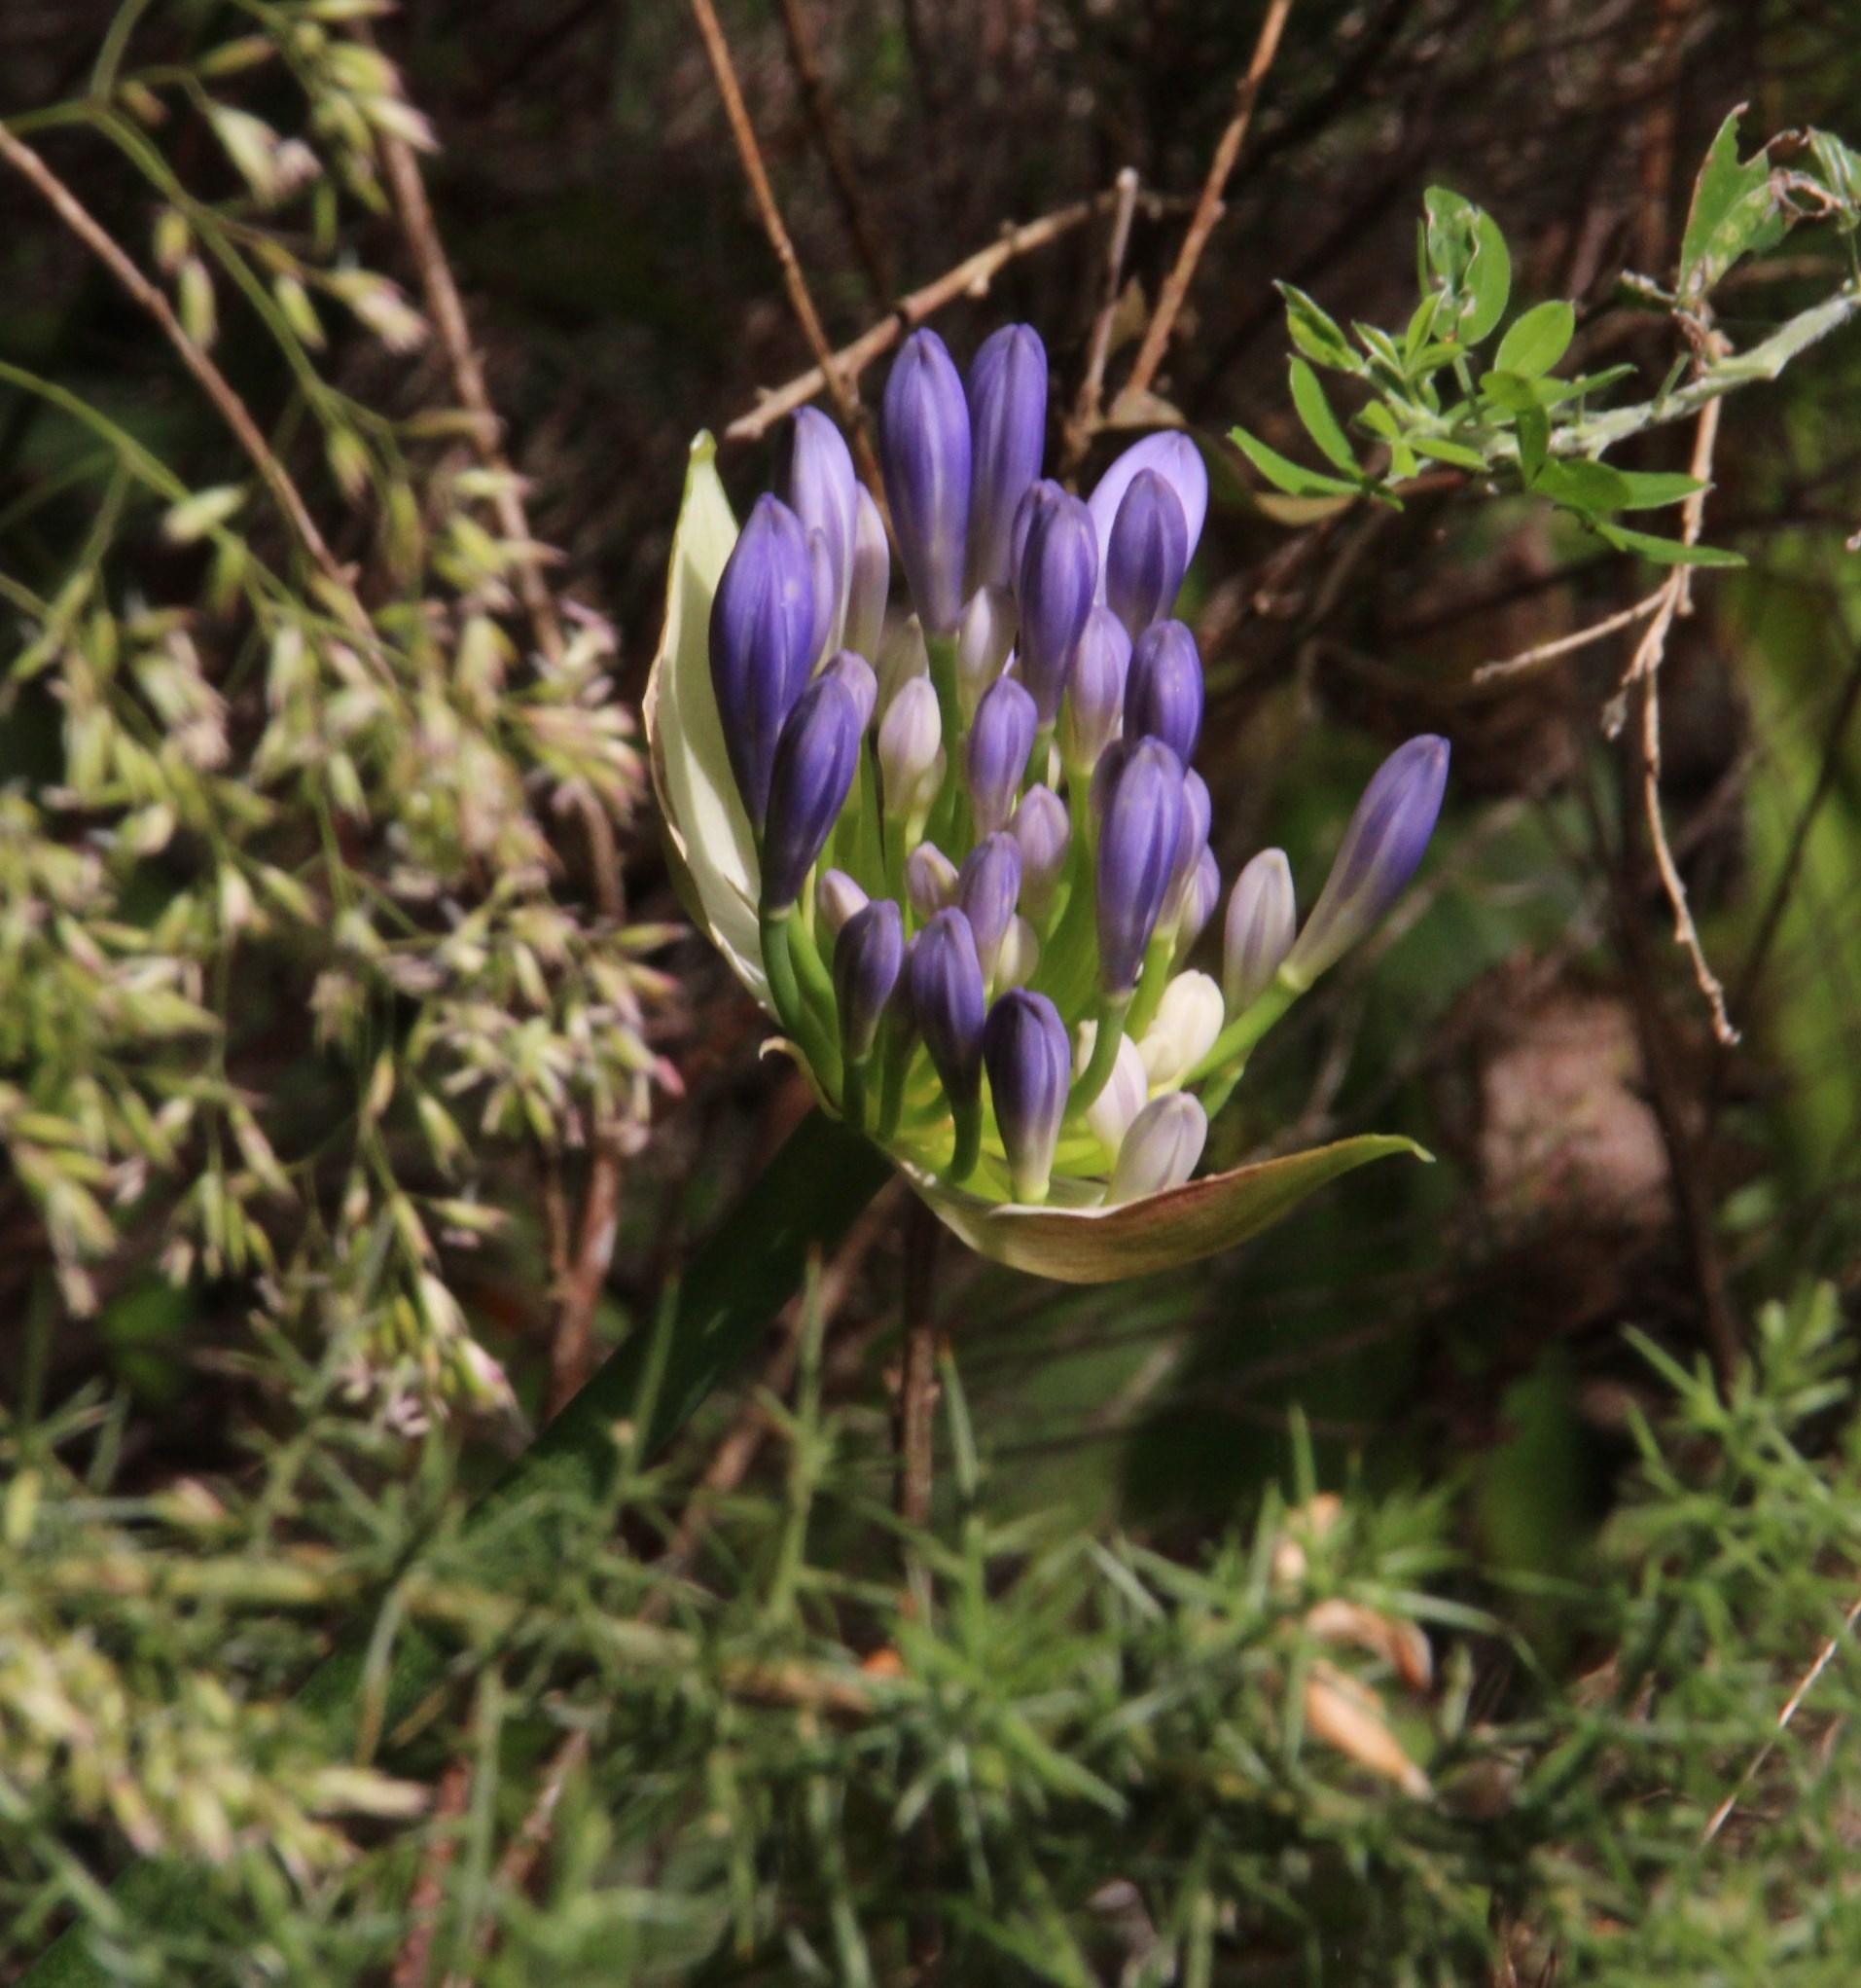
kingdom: Plantae
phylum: Tracheophyta
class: Liliopsida
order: Asparagales
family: Amaryllidaceae
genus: Agapanthus
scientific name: Agapanthus praecox
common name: African-lily
